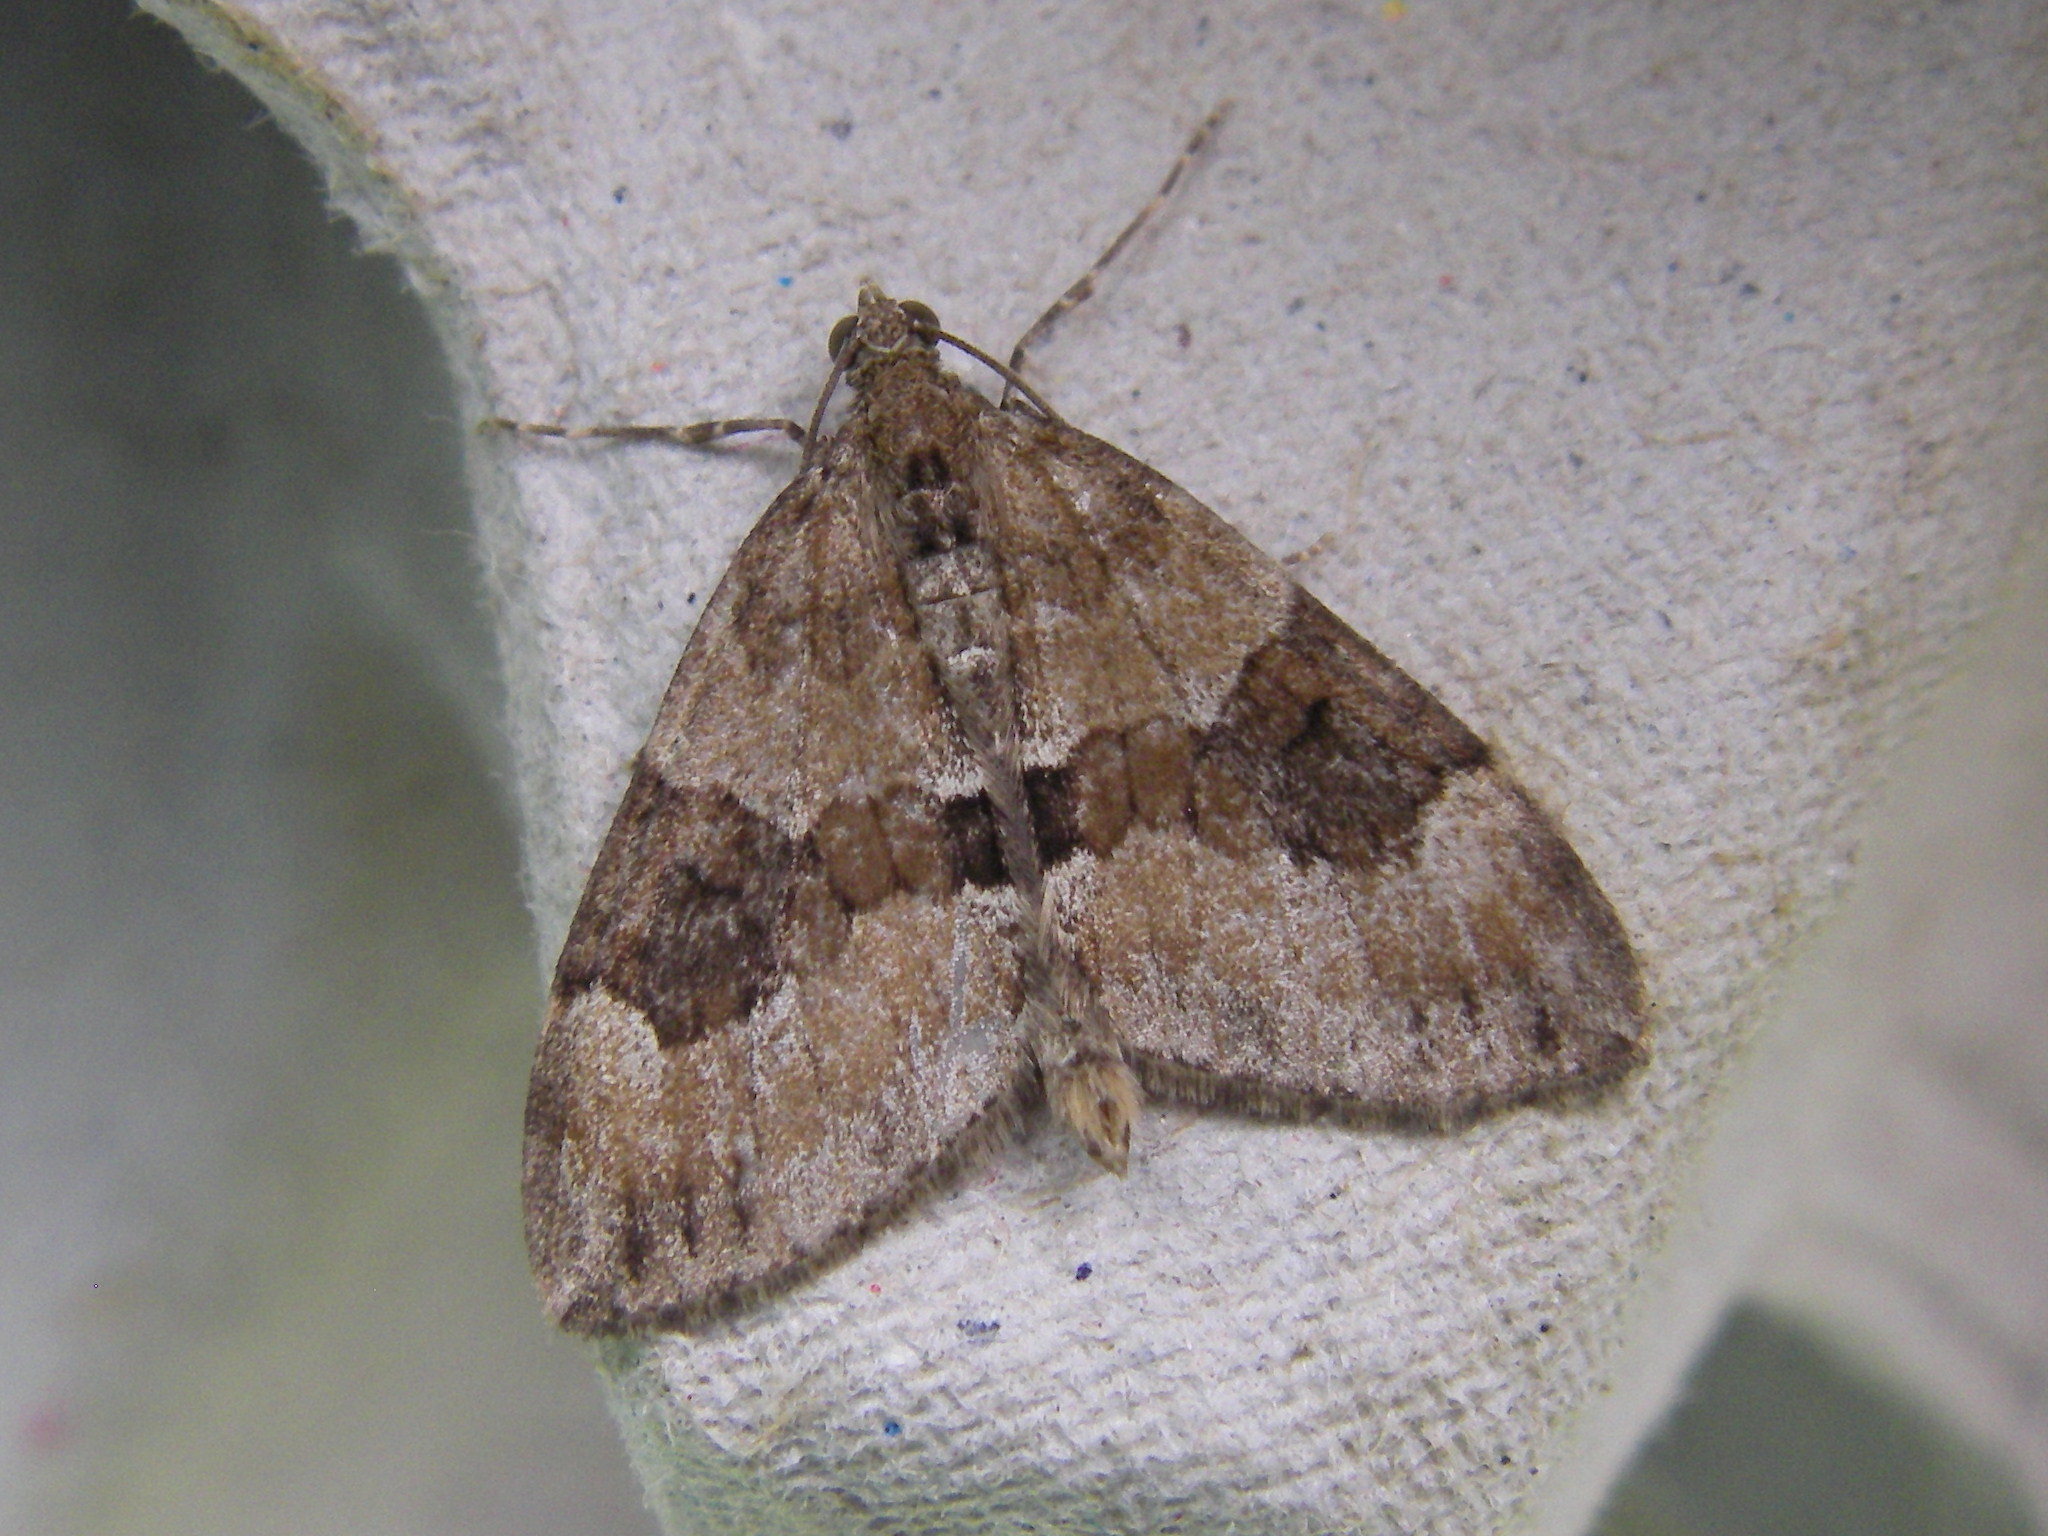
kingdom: Animalia
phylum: Arthropoda
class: Insecta
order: Lepidoptera
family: Geometridae
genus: Thera
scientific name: Thera obeliscata
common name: Grey pine carpet
